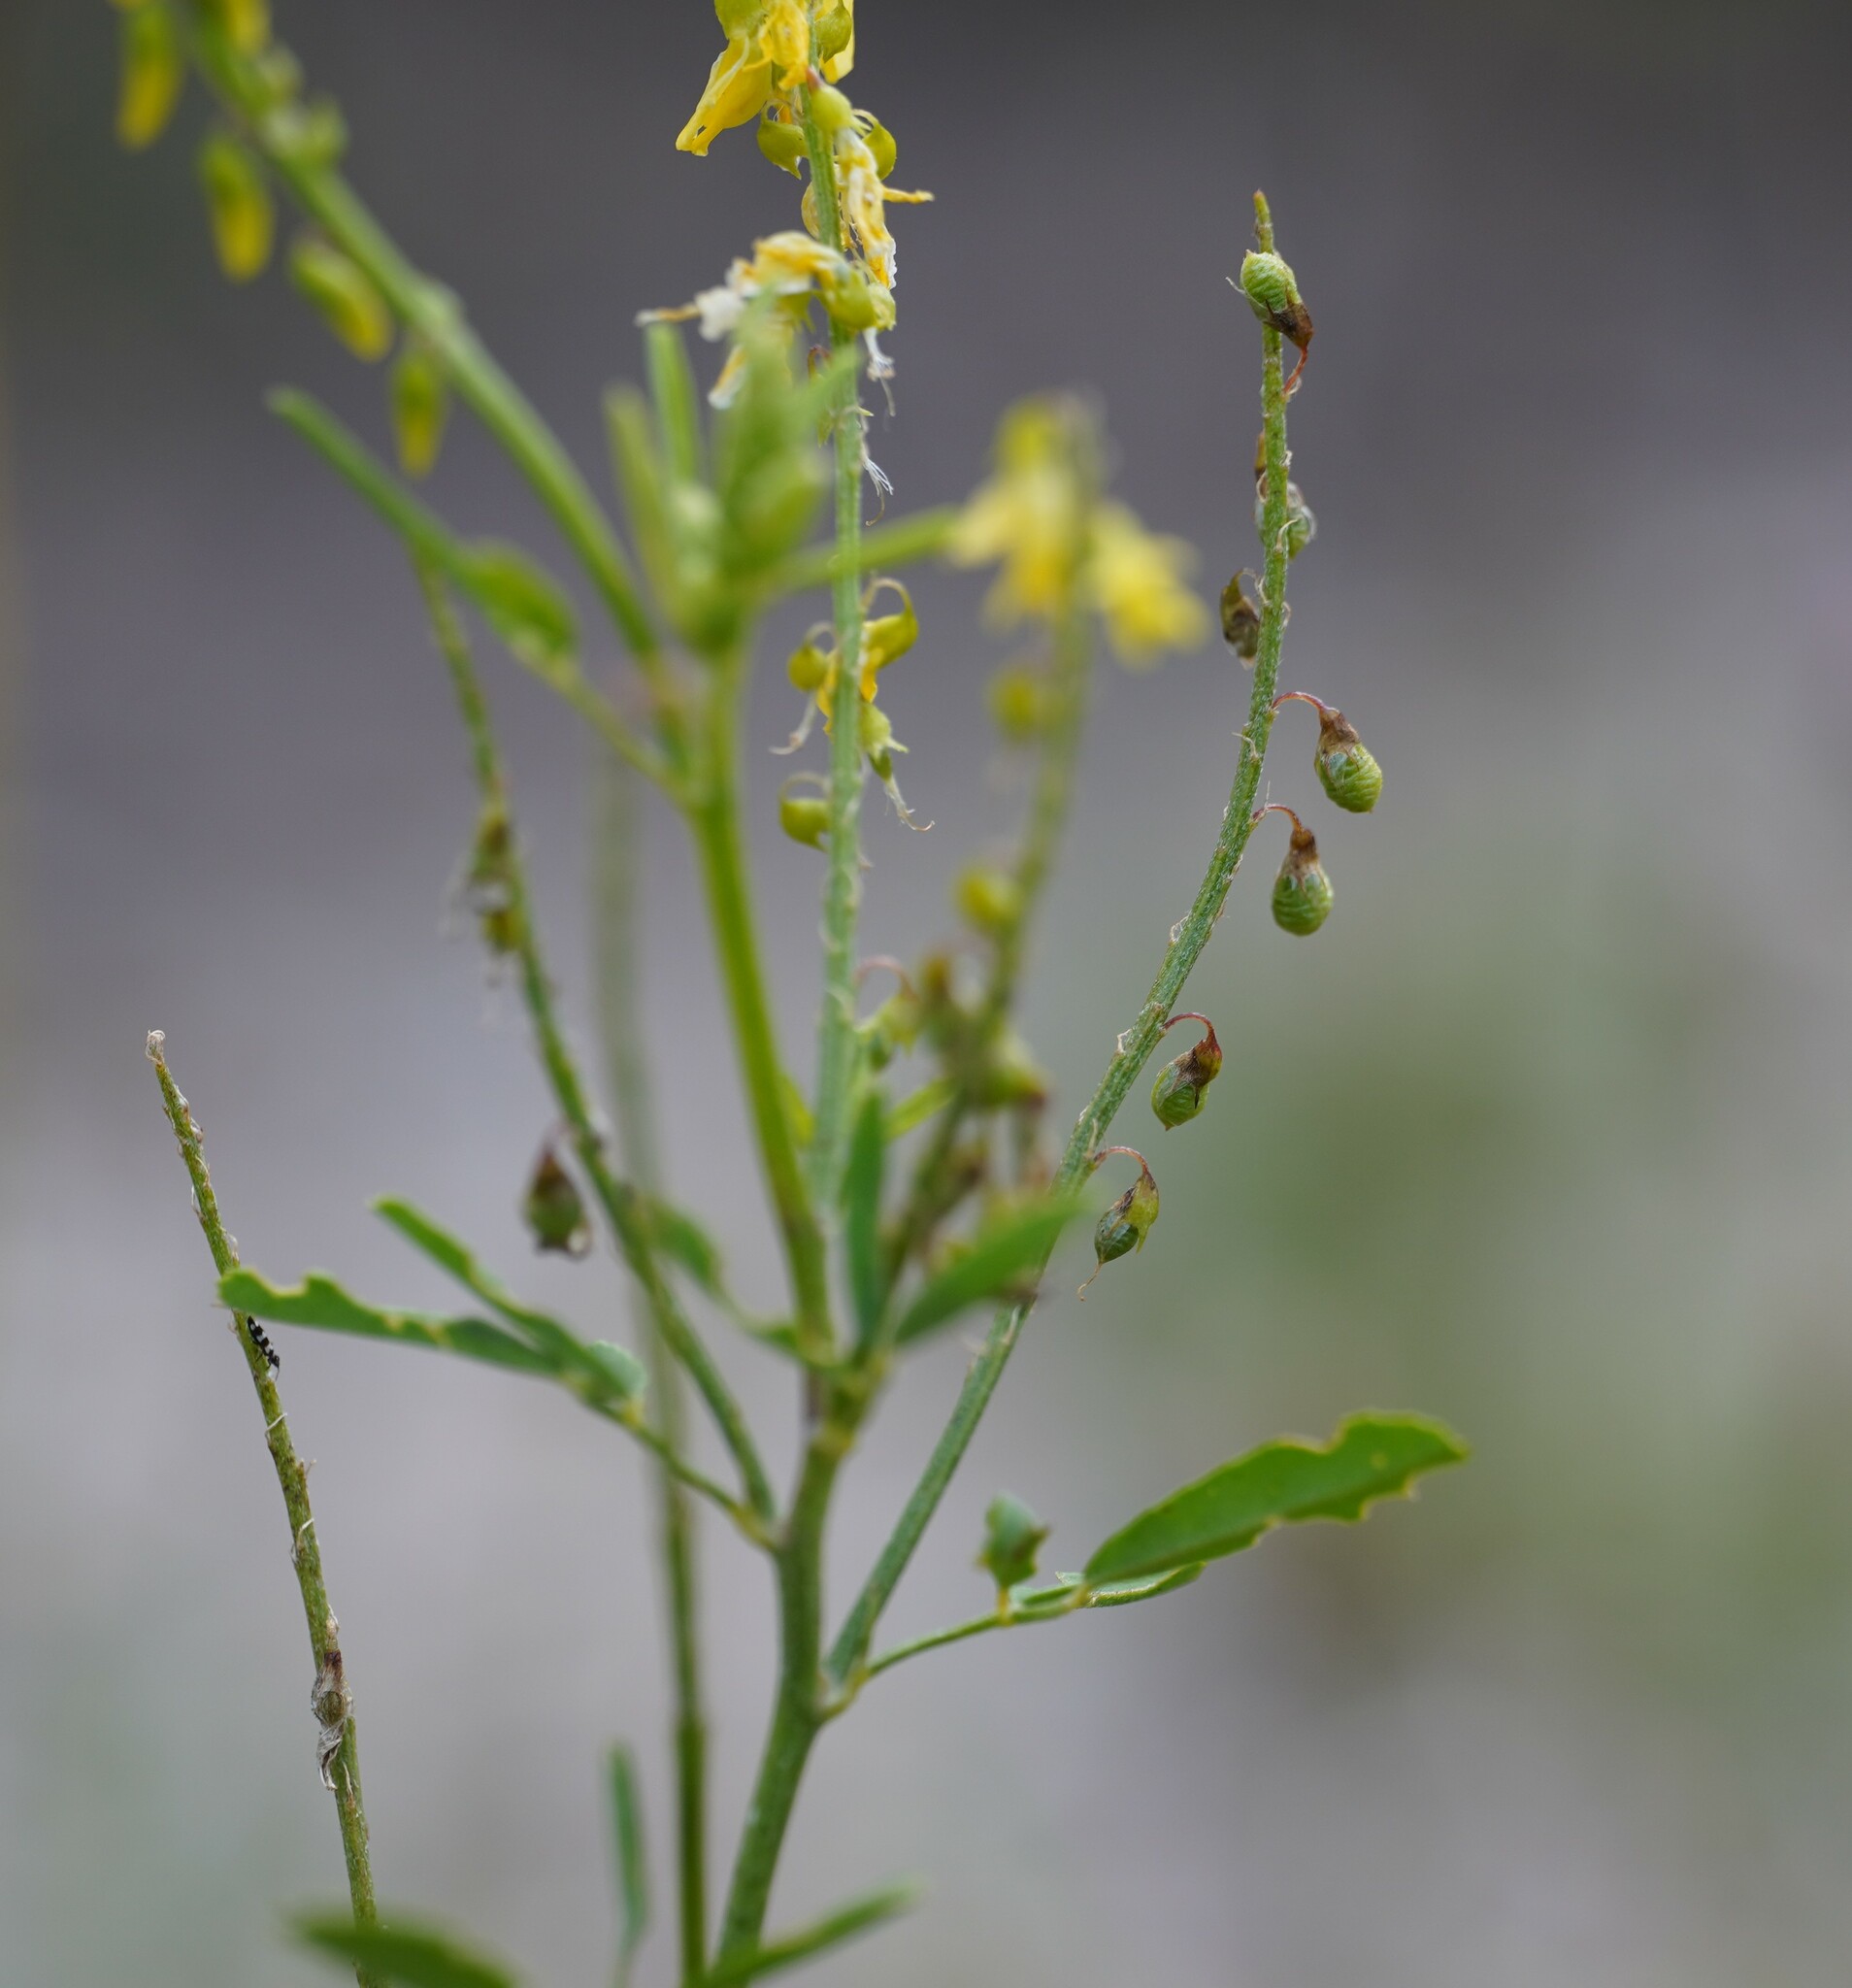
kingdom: Plantae
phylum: Tracheophyta
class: Magnoliopsida
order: Fabales
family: Fabaceae
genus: Melilotus
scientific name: Melilotus officinalis
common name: Sweetclover
